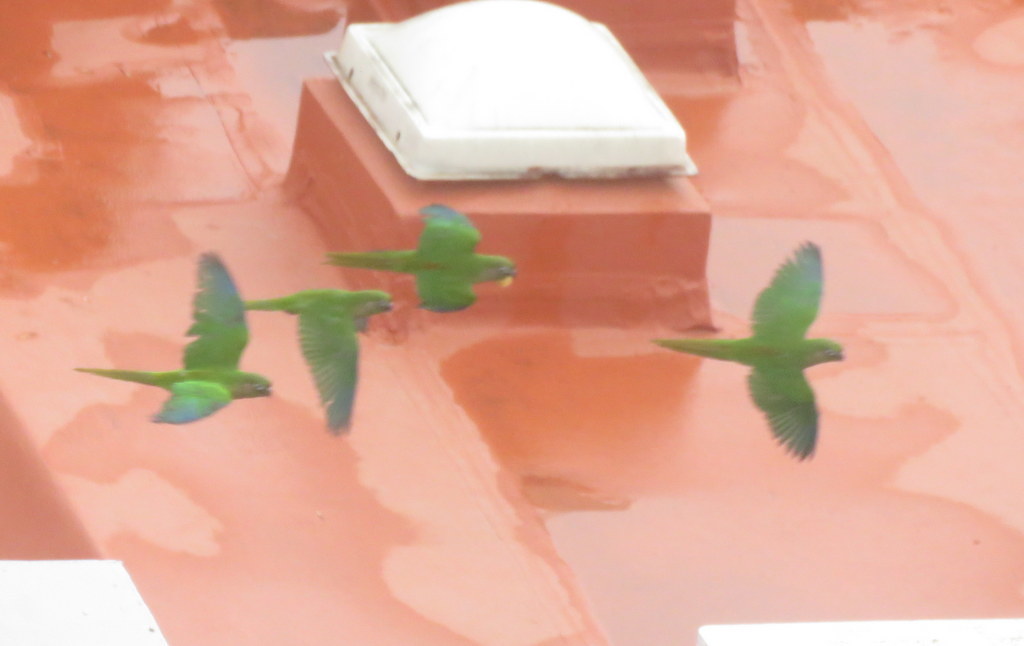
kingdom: Animalia
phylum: Chordata
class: Aves
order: Psittaciformes
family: Psittacidae
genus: Pyrrhura
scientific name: Pyrrhura frontalis
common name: Maroon-bellied parakeet
